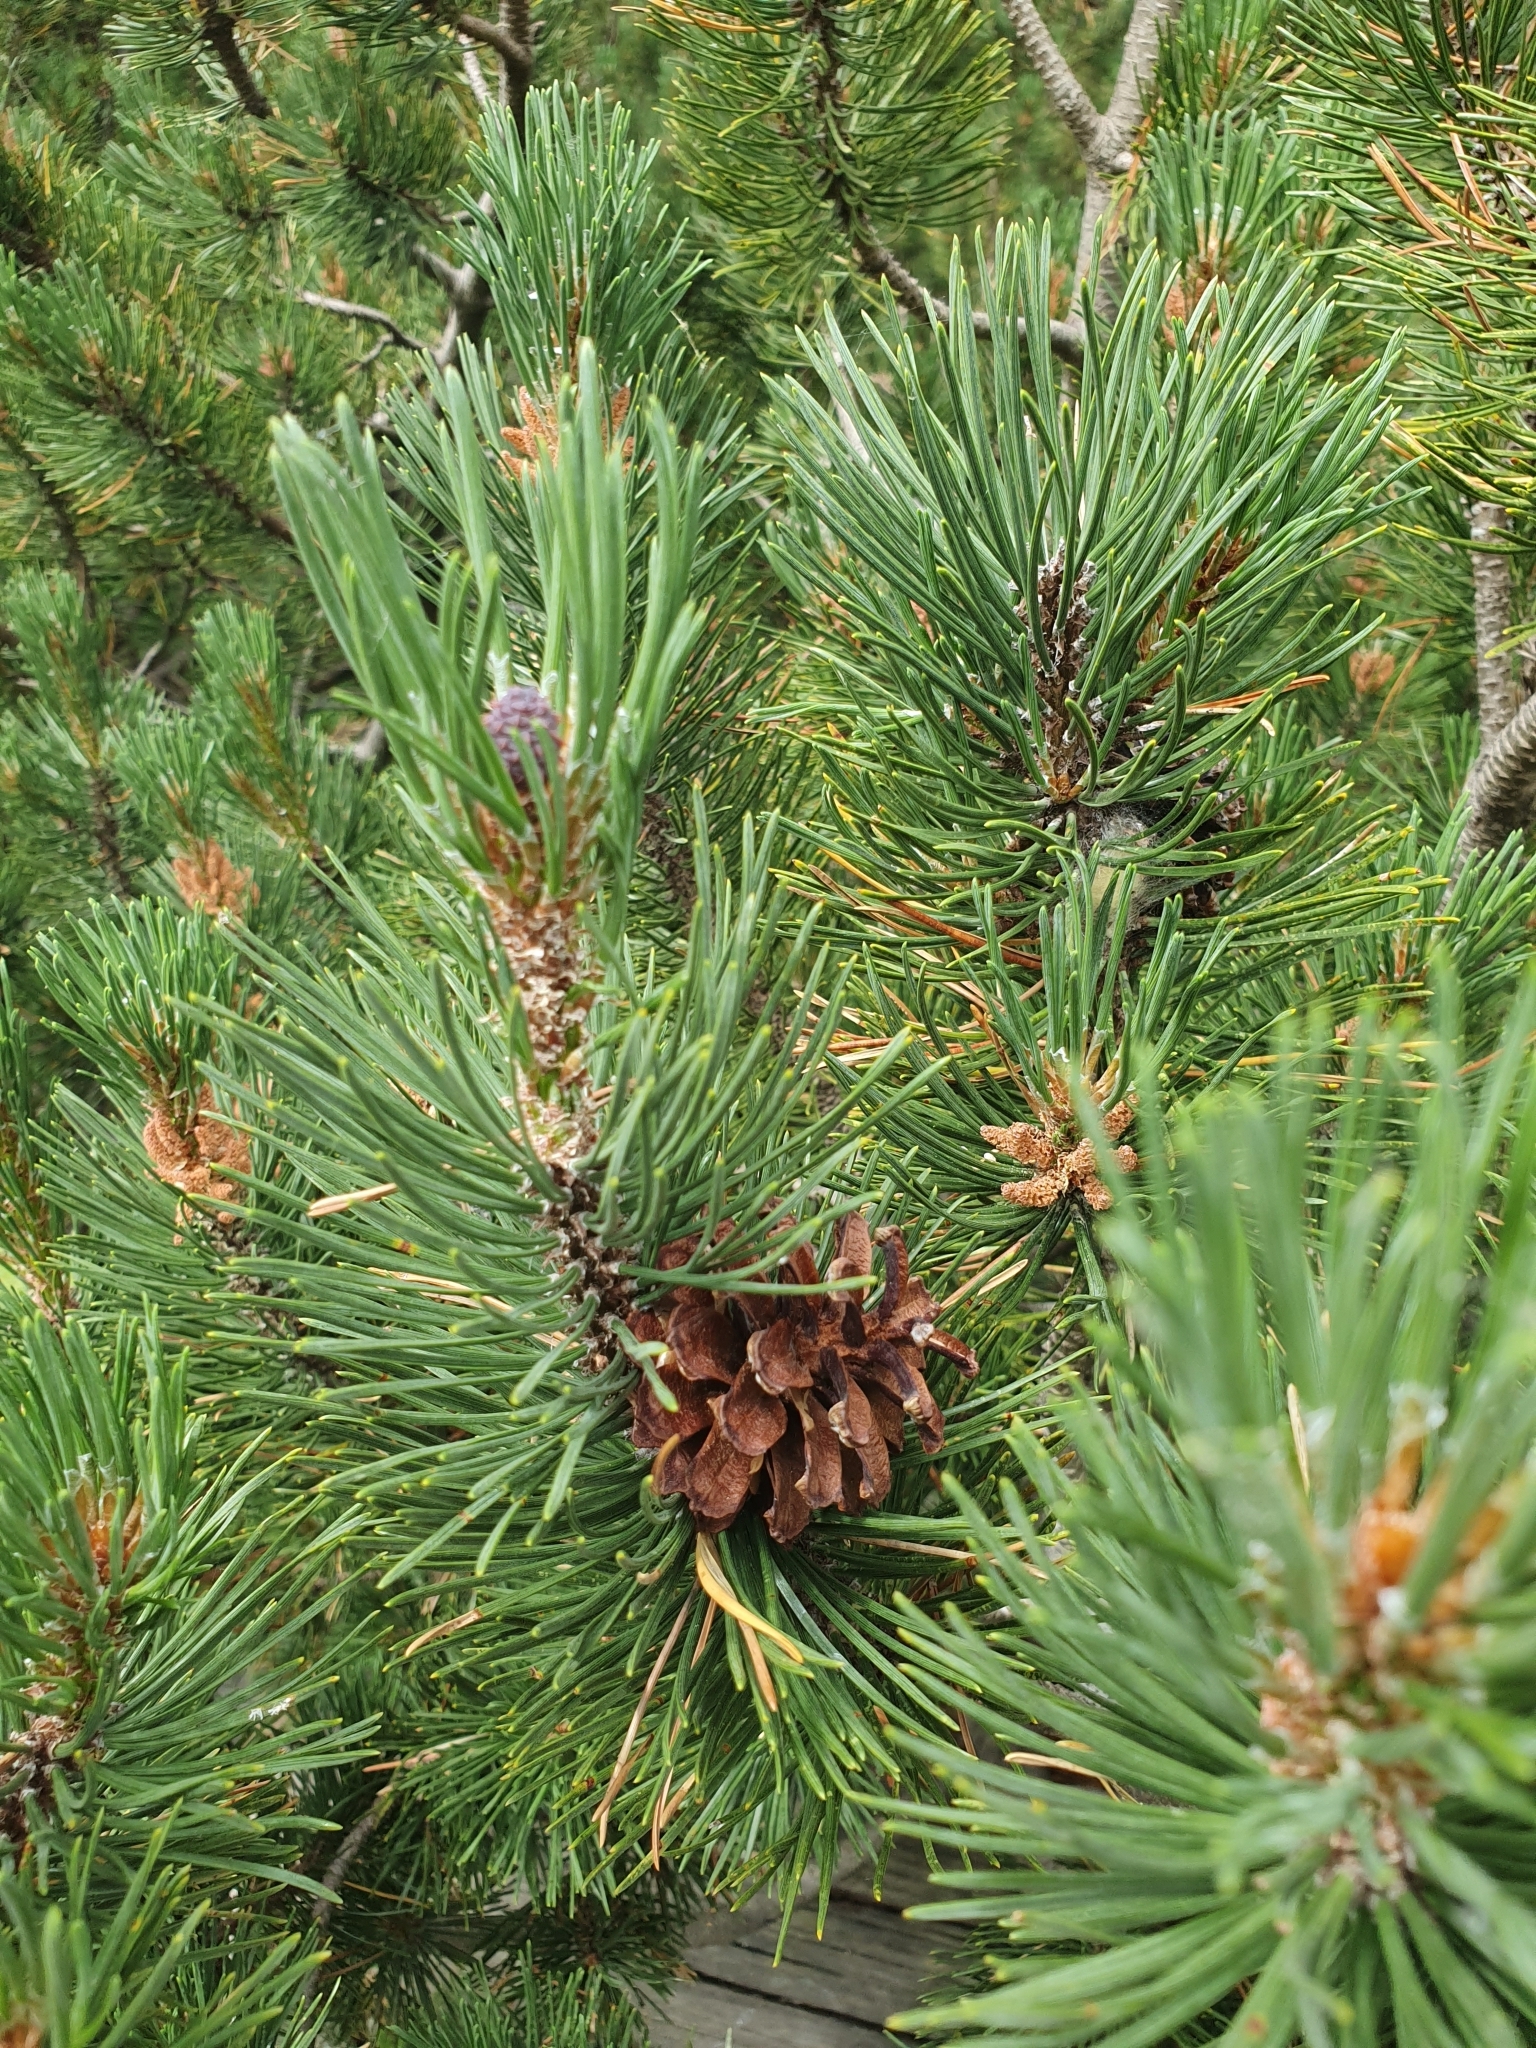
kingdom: Plantae
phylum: Tracheophyta
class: Pinopsida
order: Pinales
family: Pinaceae
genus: Pinus
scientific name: Pinus mugo
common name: Mugo pine
